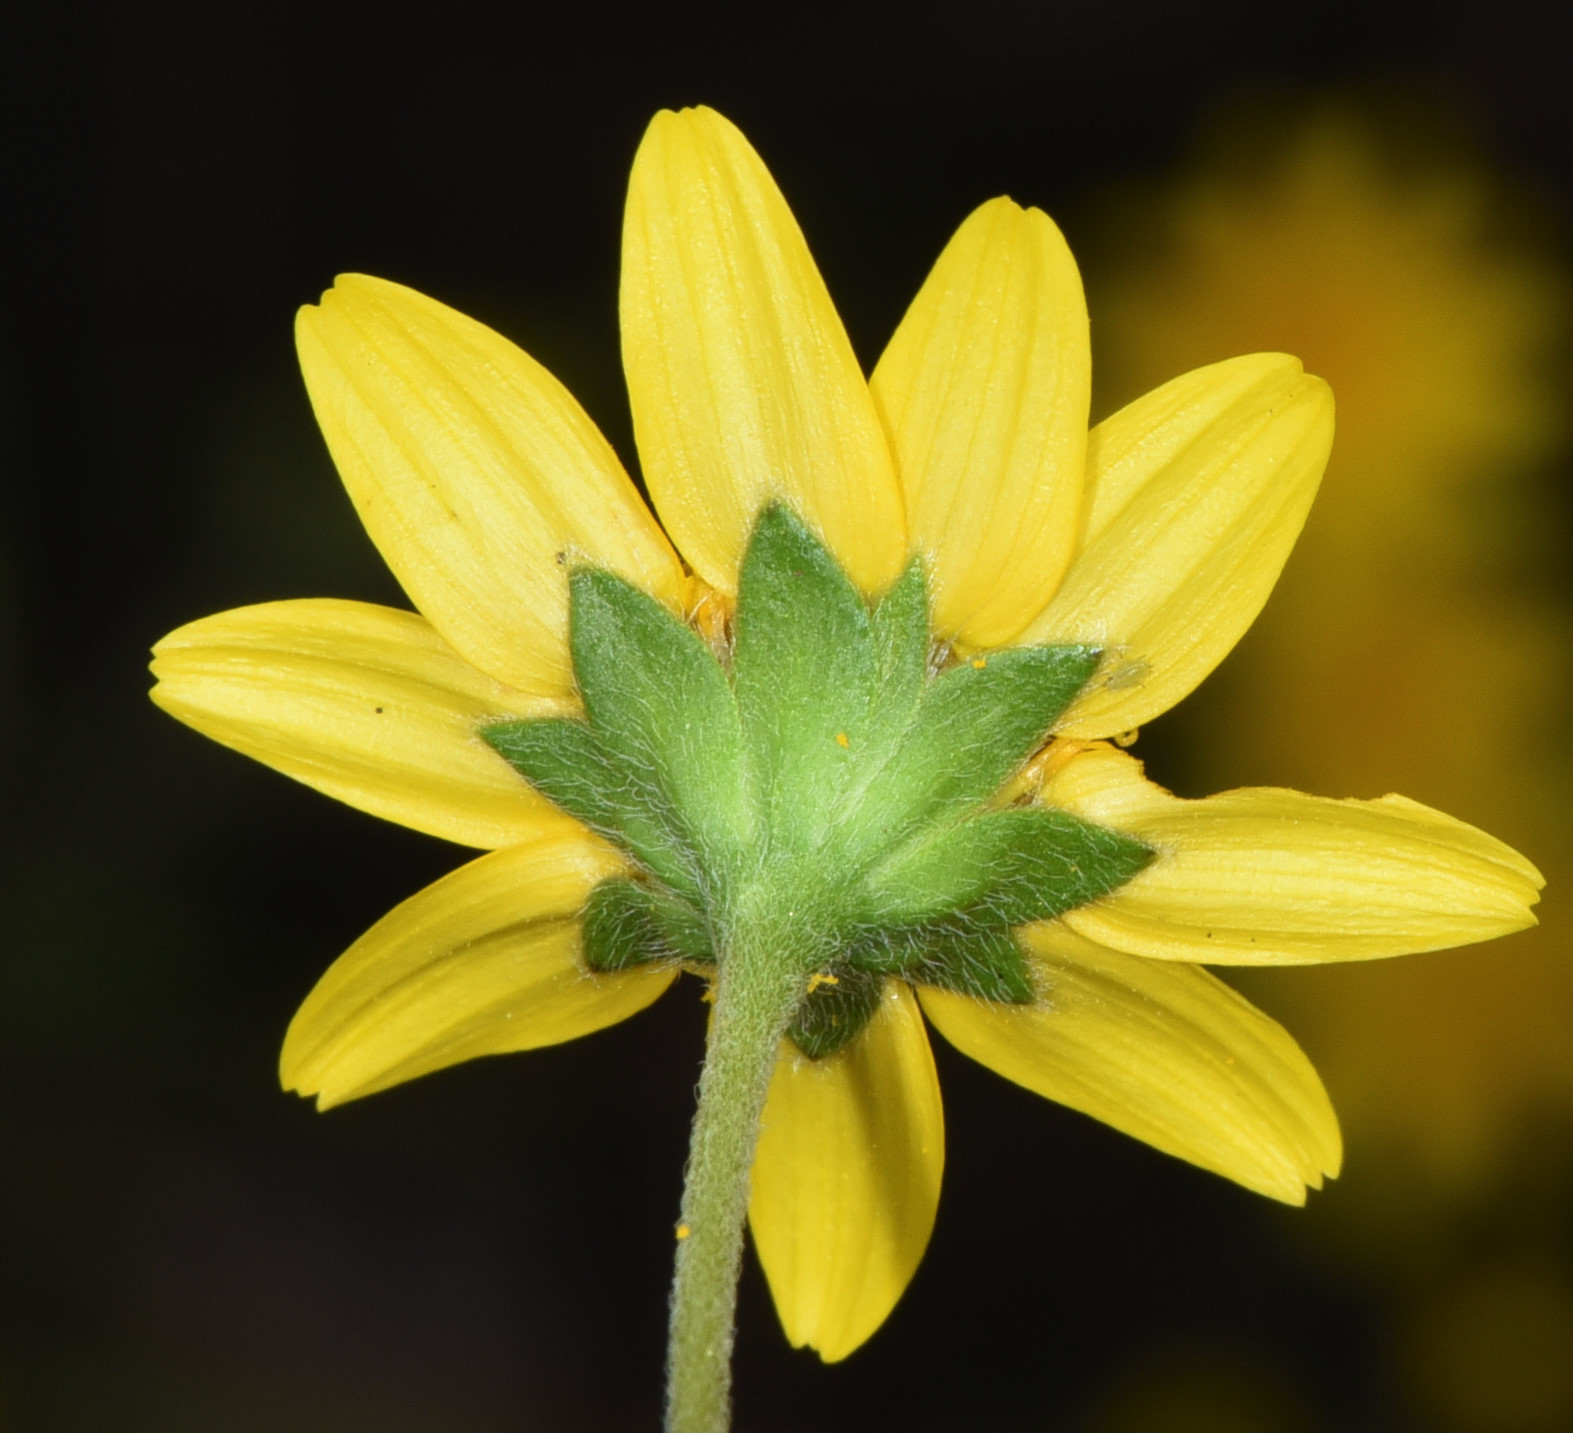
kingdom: Plantae
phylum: Tracheophyta
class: Magnoliopsida
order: Asterales
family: Asteraceae
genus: Lasthenia
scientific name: Lasthenia gracilis
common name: Common goldfields
